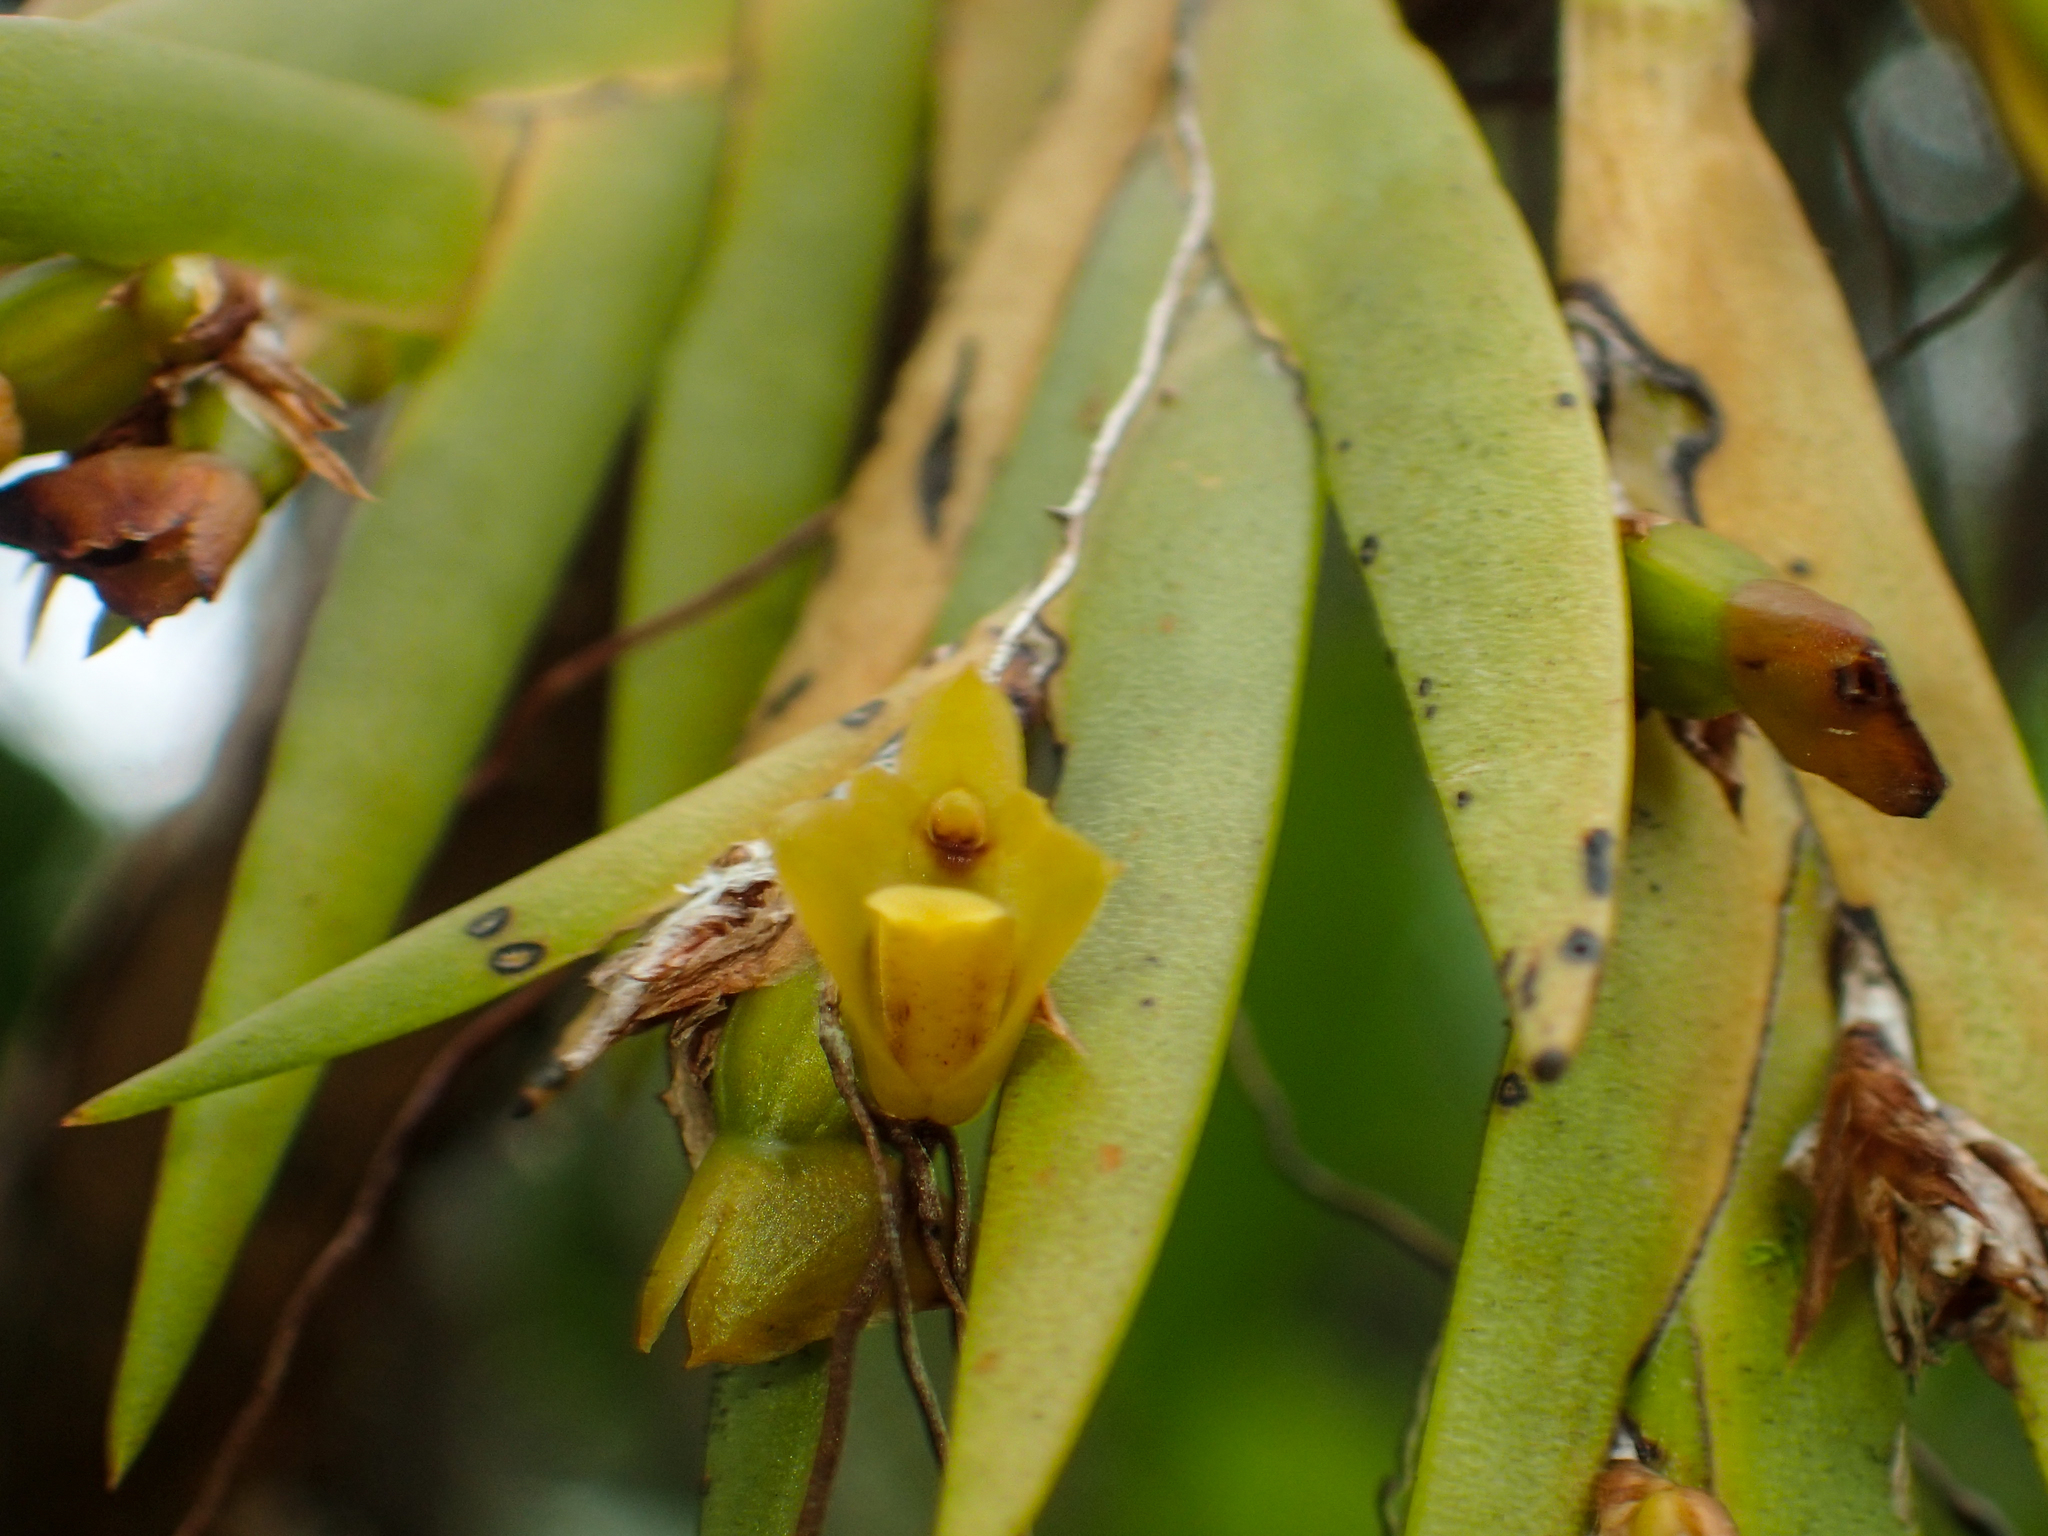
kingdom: Plantae
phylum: Tracheophyta
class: Liliopsida
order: Asparagales
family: Orchidaceae
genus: Oxystophyllum
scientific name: Oxystophyllum carnosum
